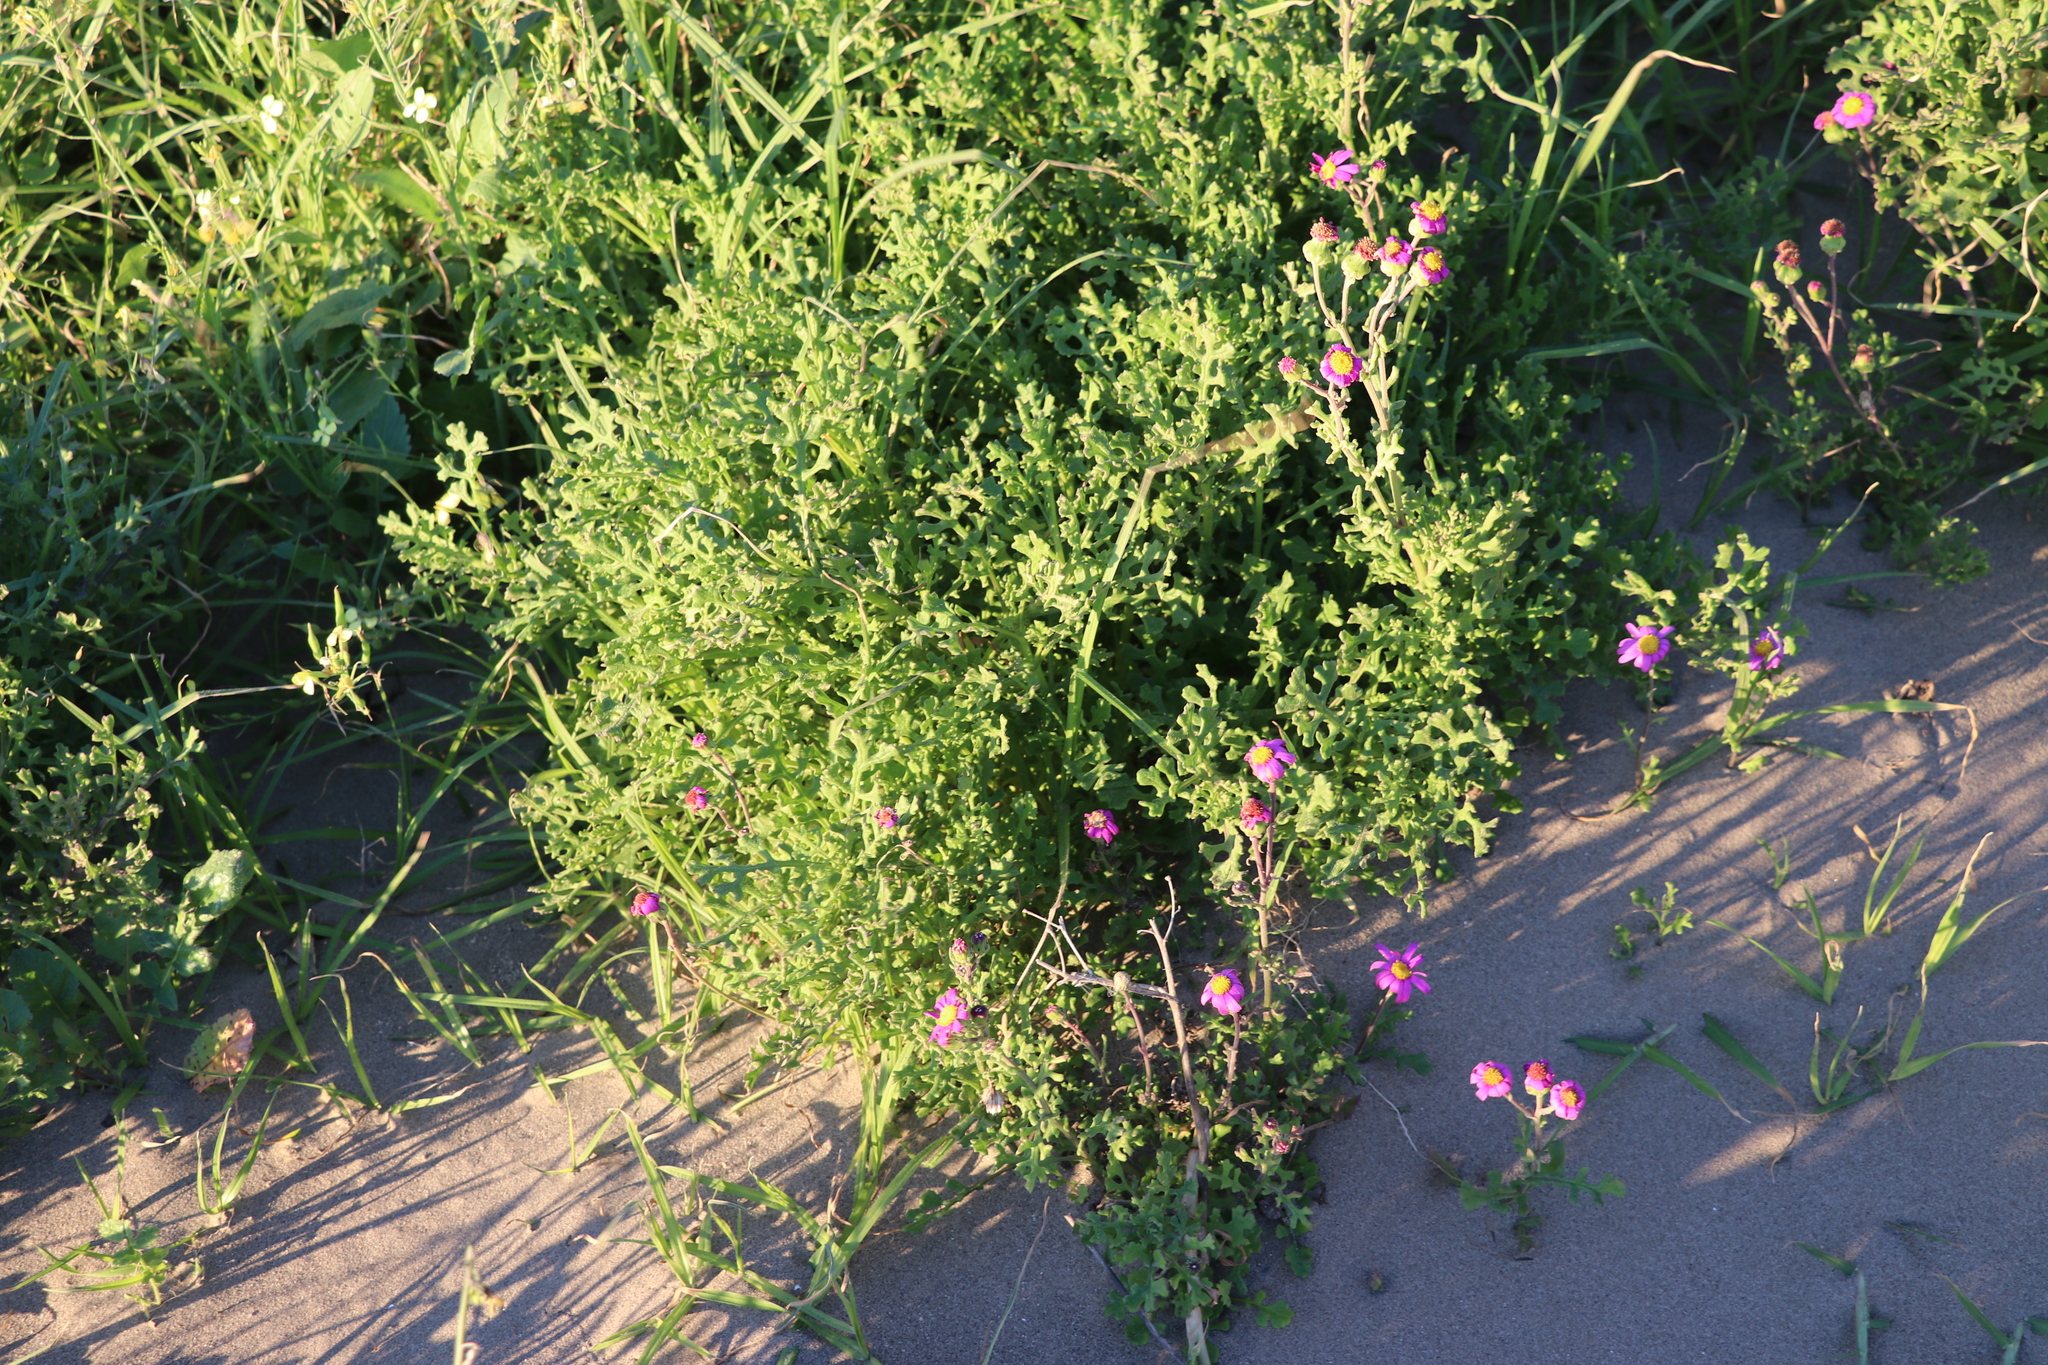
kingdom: Plantae
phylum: Tracheophyta
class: Magnoliopsida
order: Asterales
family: Asteraceae
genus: Senecio
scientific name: Senecio elegans
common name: Purple groundsel
